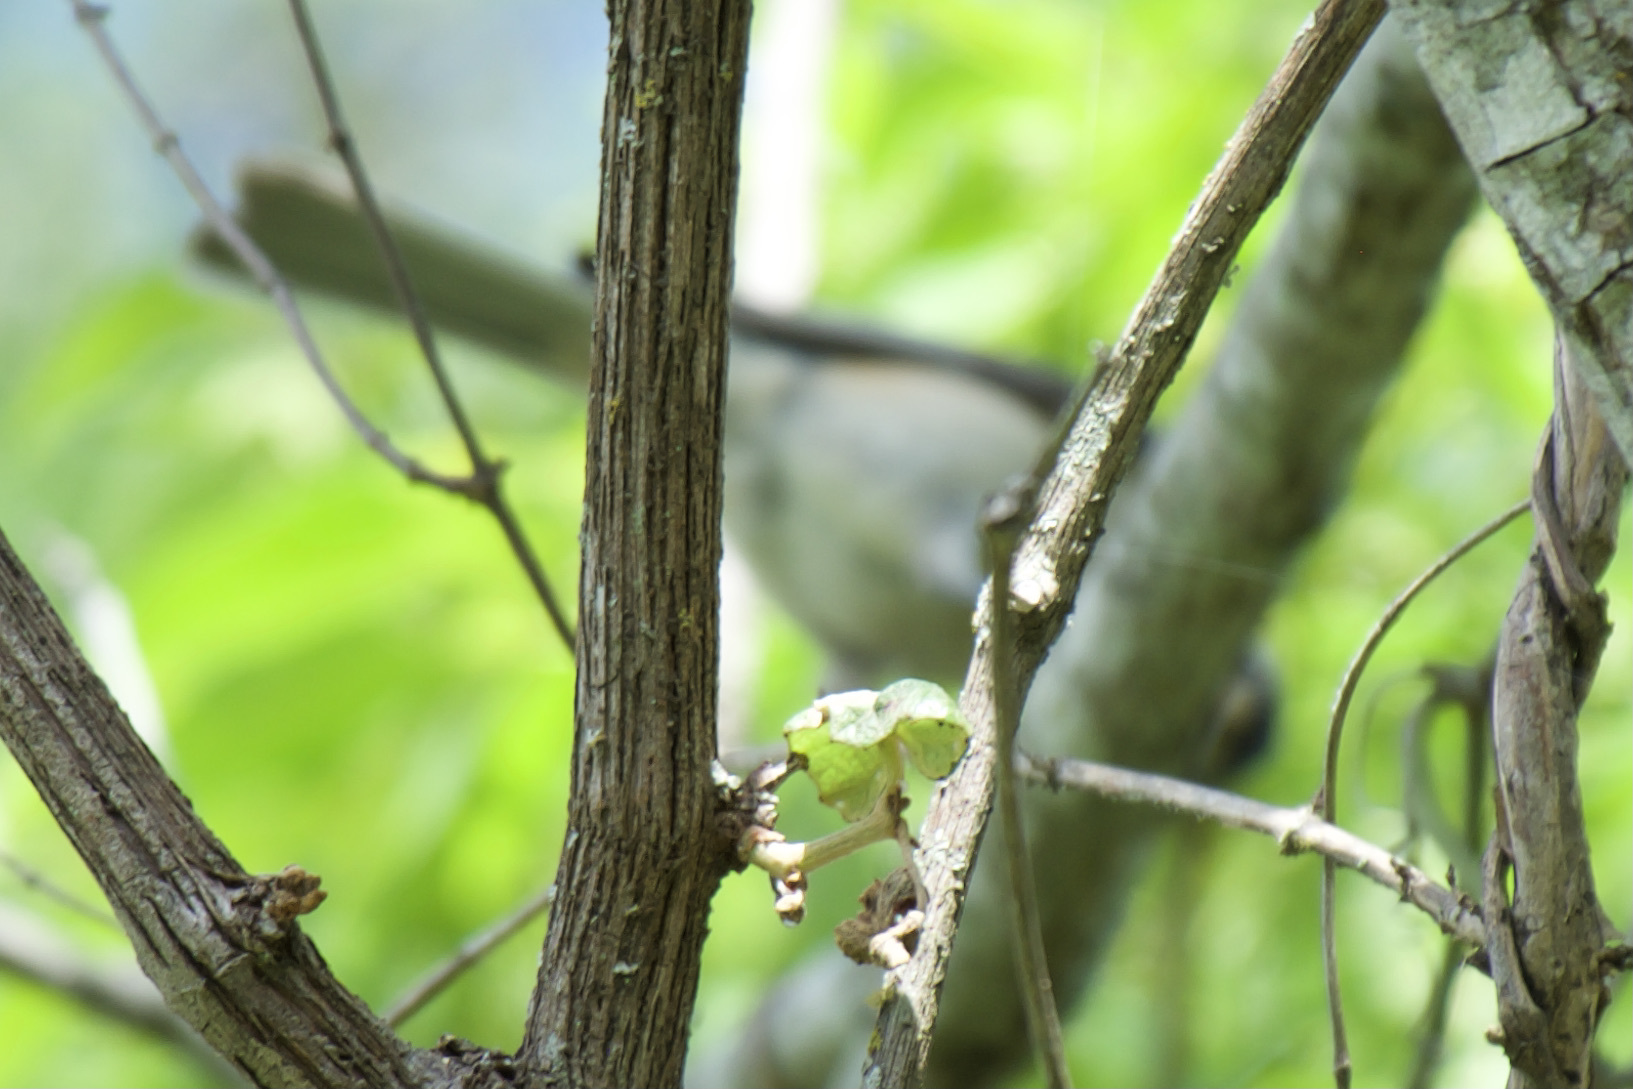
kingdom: Animalia
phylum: Chordata
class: Aves
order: Passeriformes
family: Paridae
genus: Baeolophus
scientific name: Baeolophus atricristatus
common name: Black-crested titmouse
